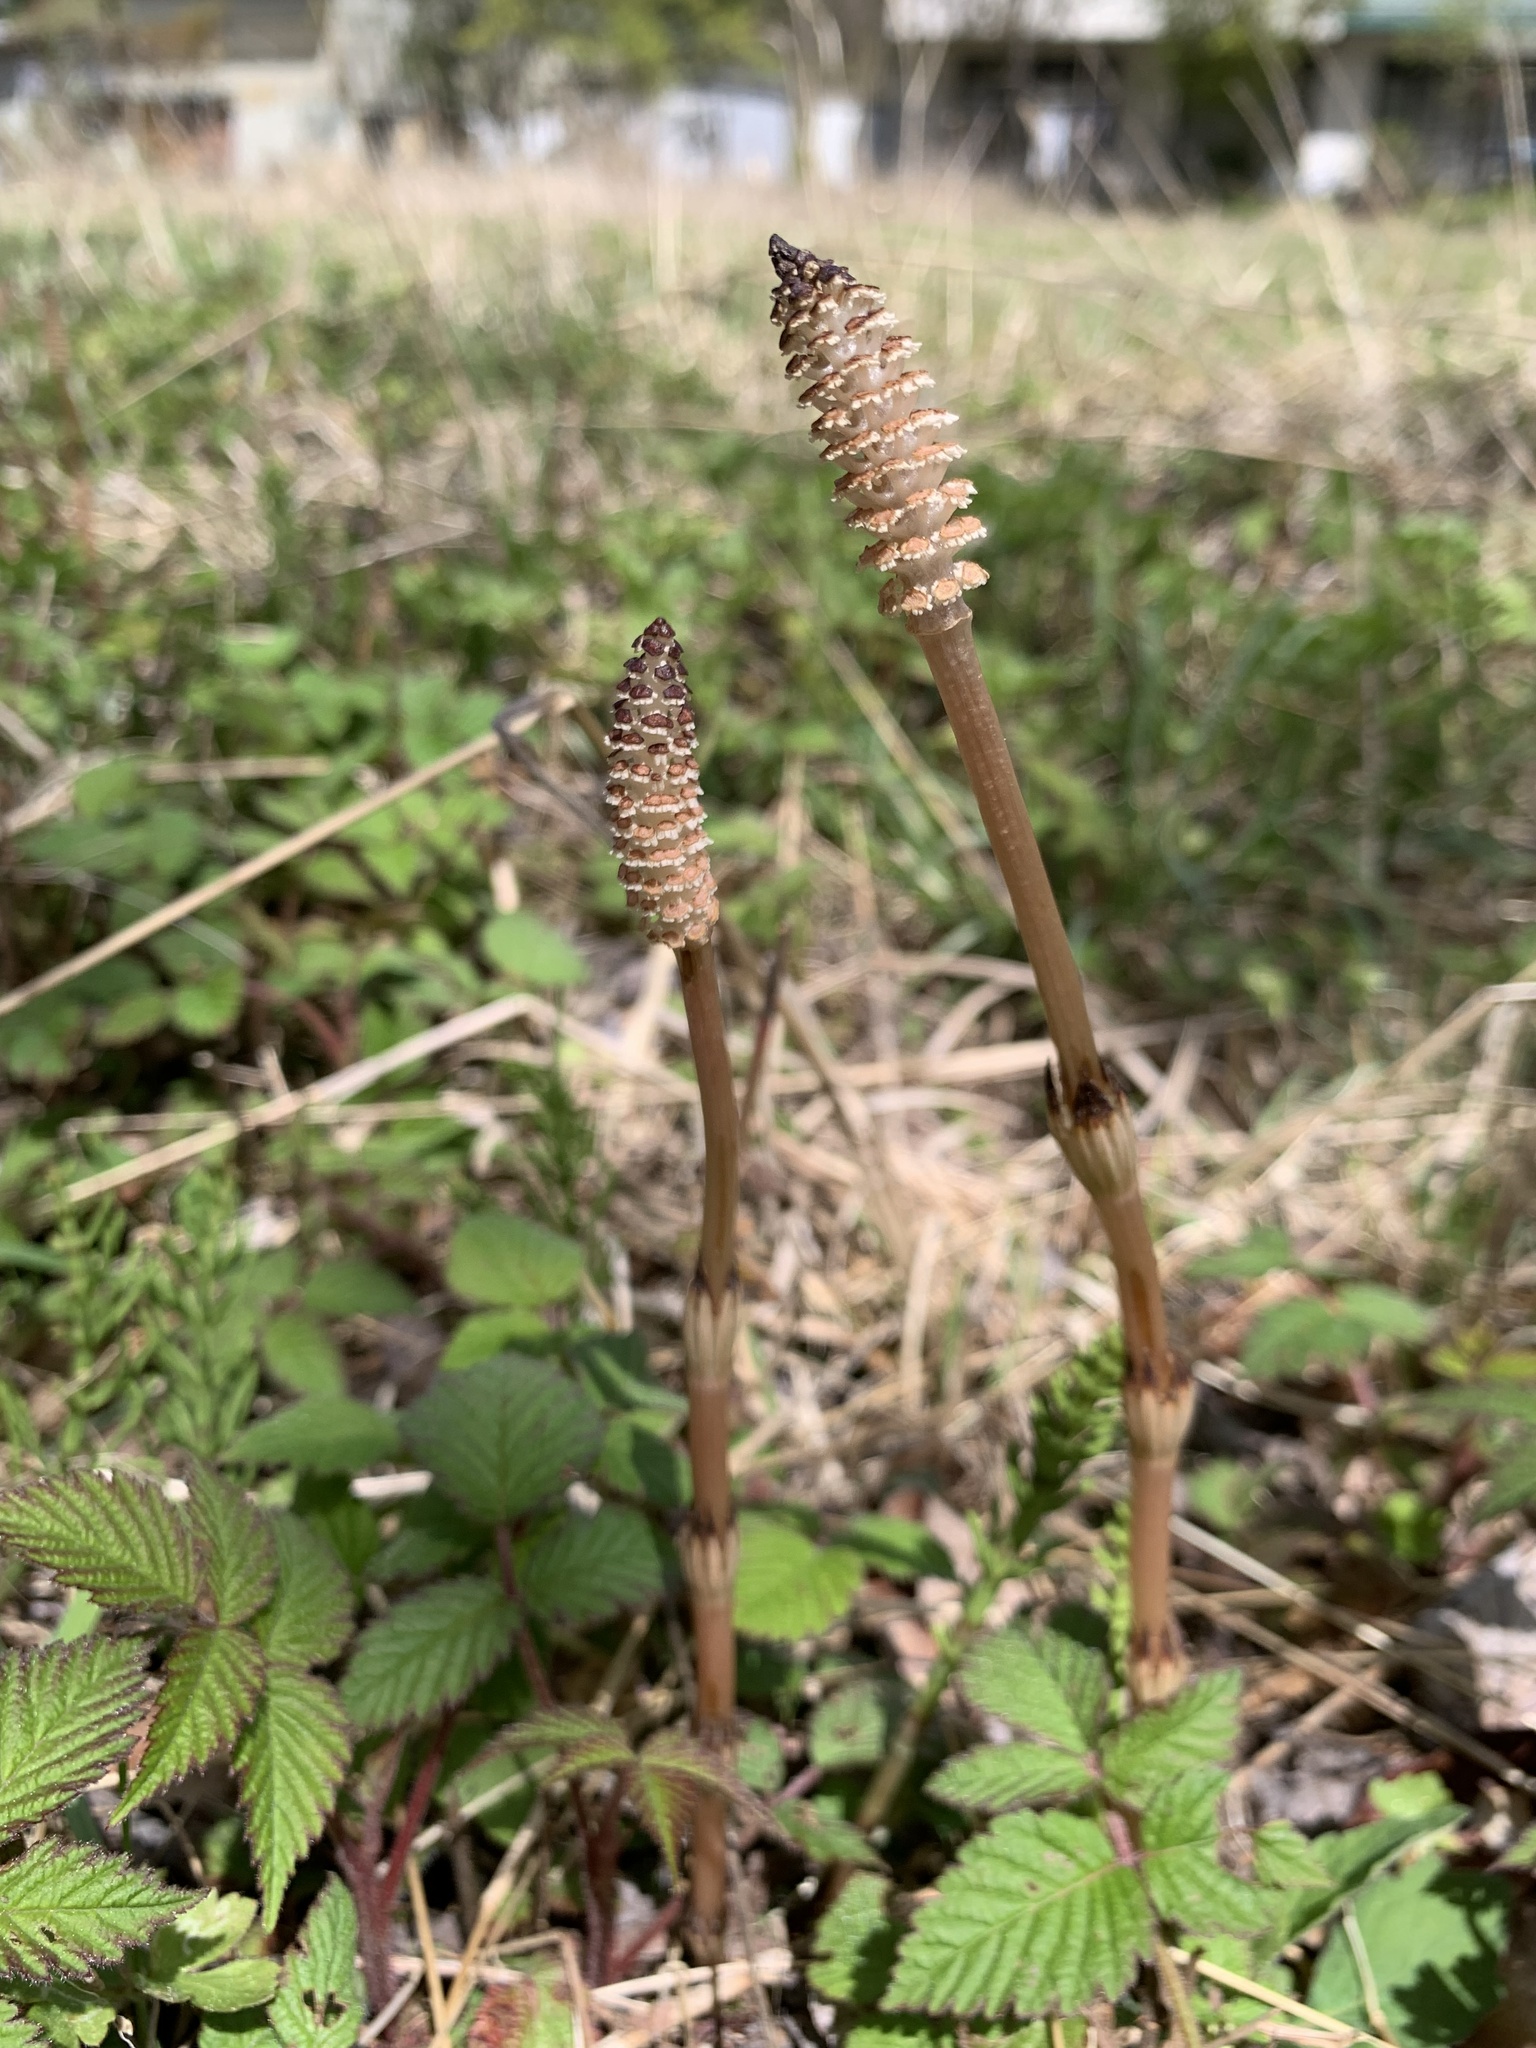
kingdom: Plantae
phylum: Tracheophyta
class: Polypodiopsida
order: Equisetales
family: Equisetaceae
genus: Equisetum
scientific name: Equisetum arvense
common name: Field horsetail
